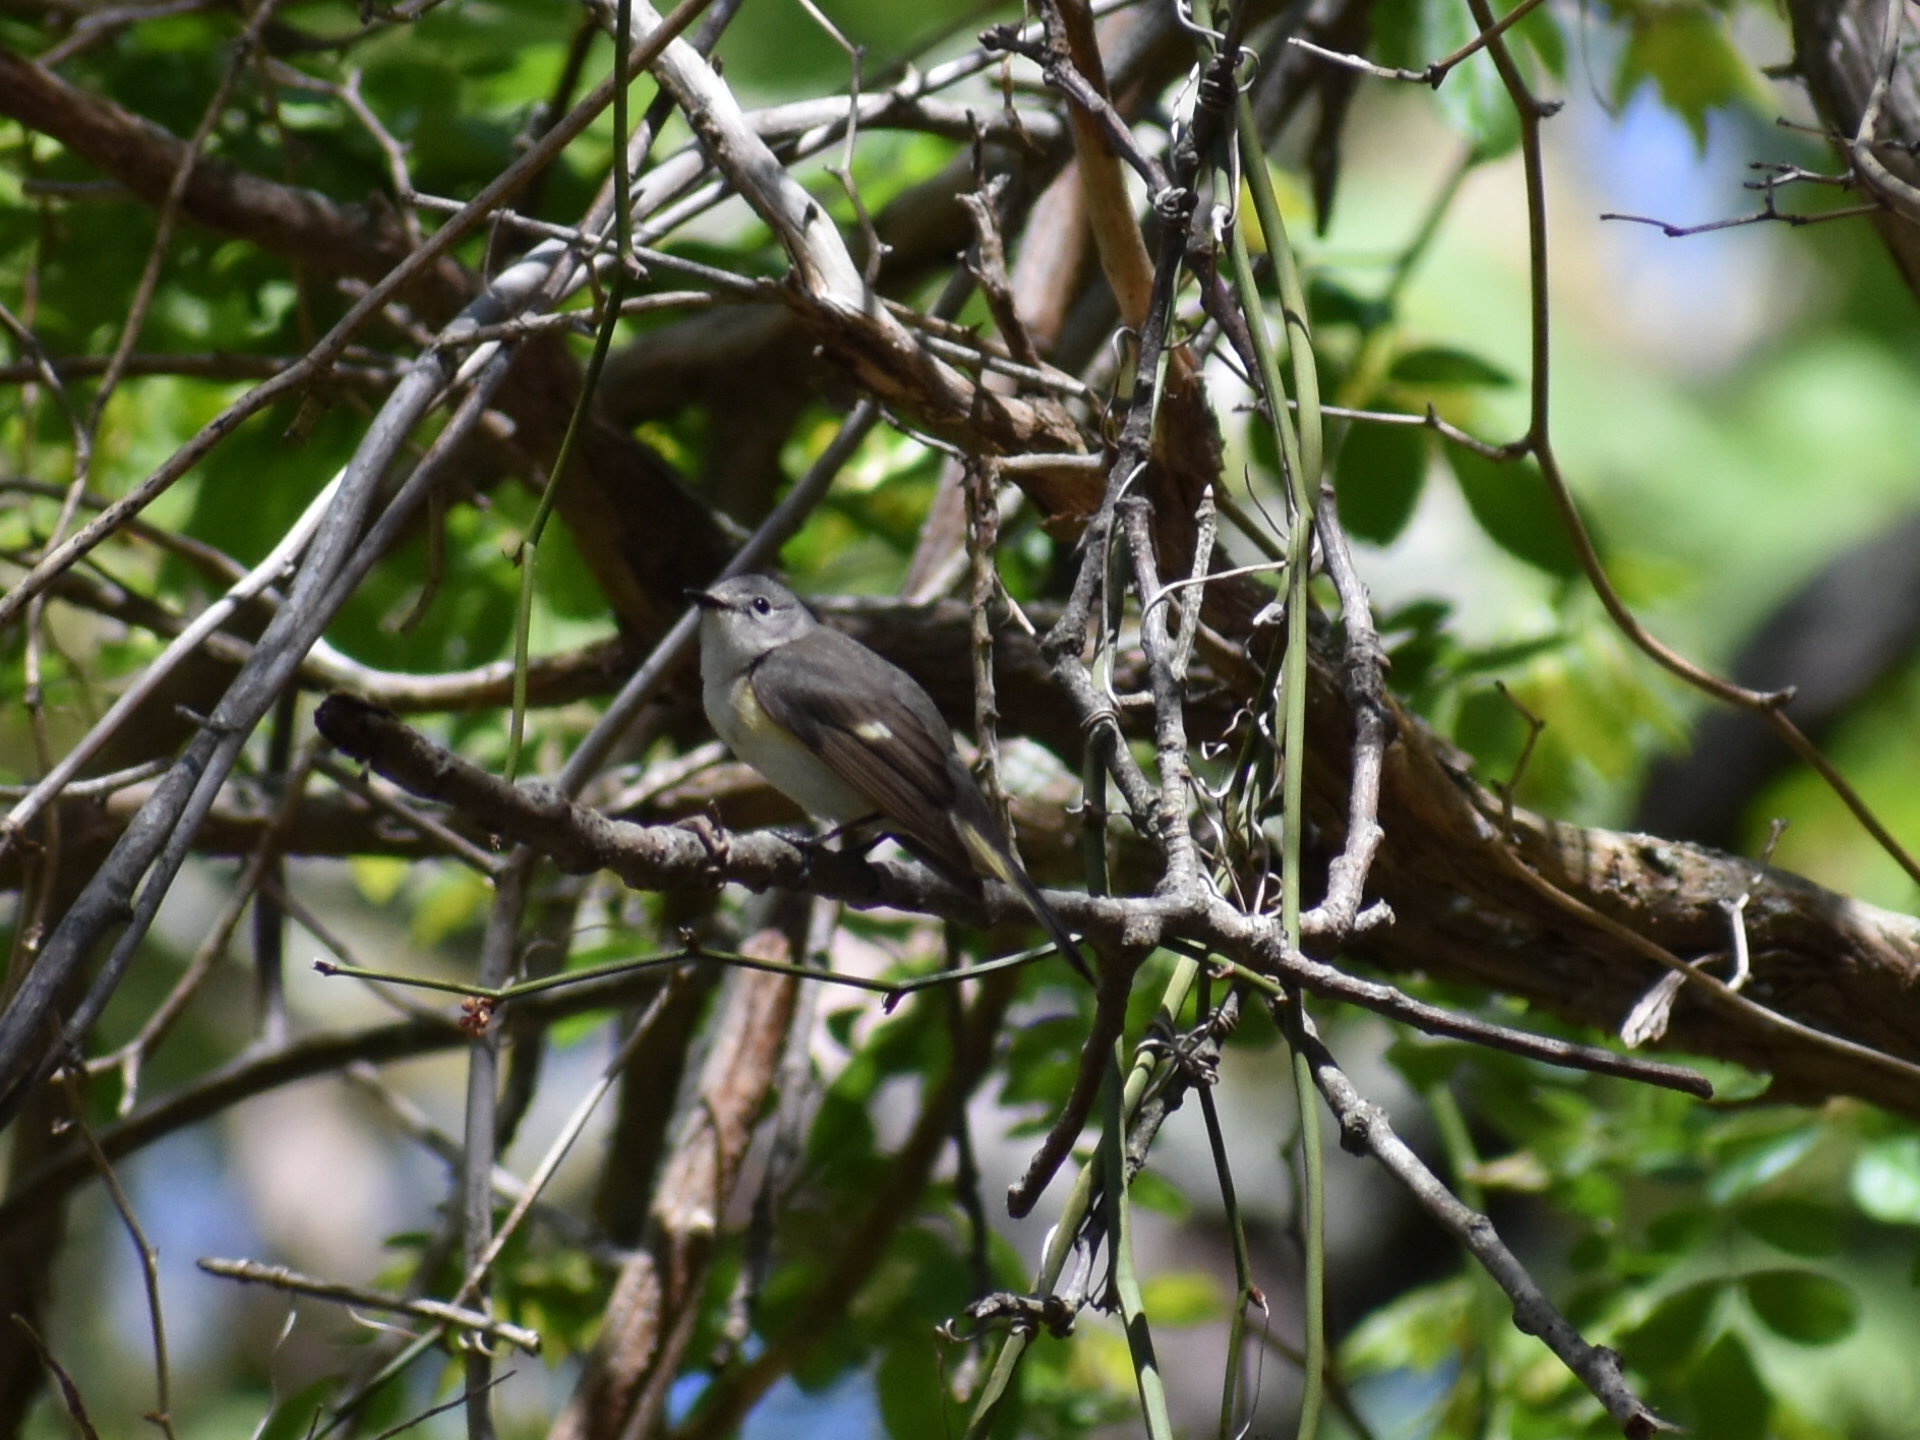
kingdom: Animalia
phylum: Chordata
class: Aves
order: Passeriformes
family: Parulidae
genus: Setophaga
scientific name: Setophaga ruticilla
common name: American redstart
